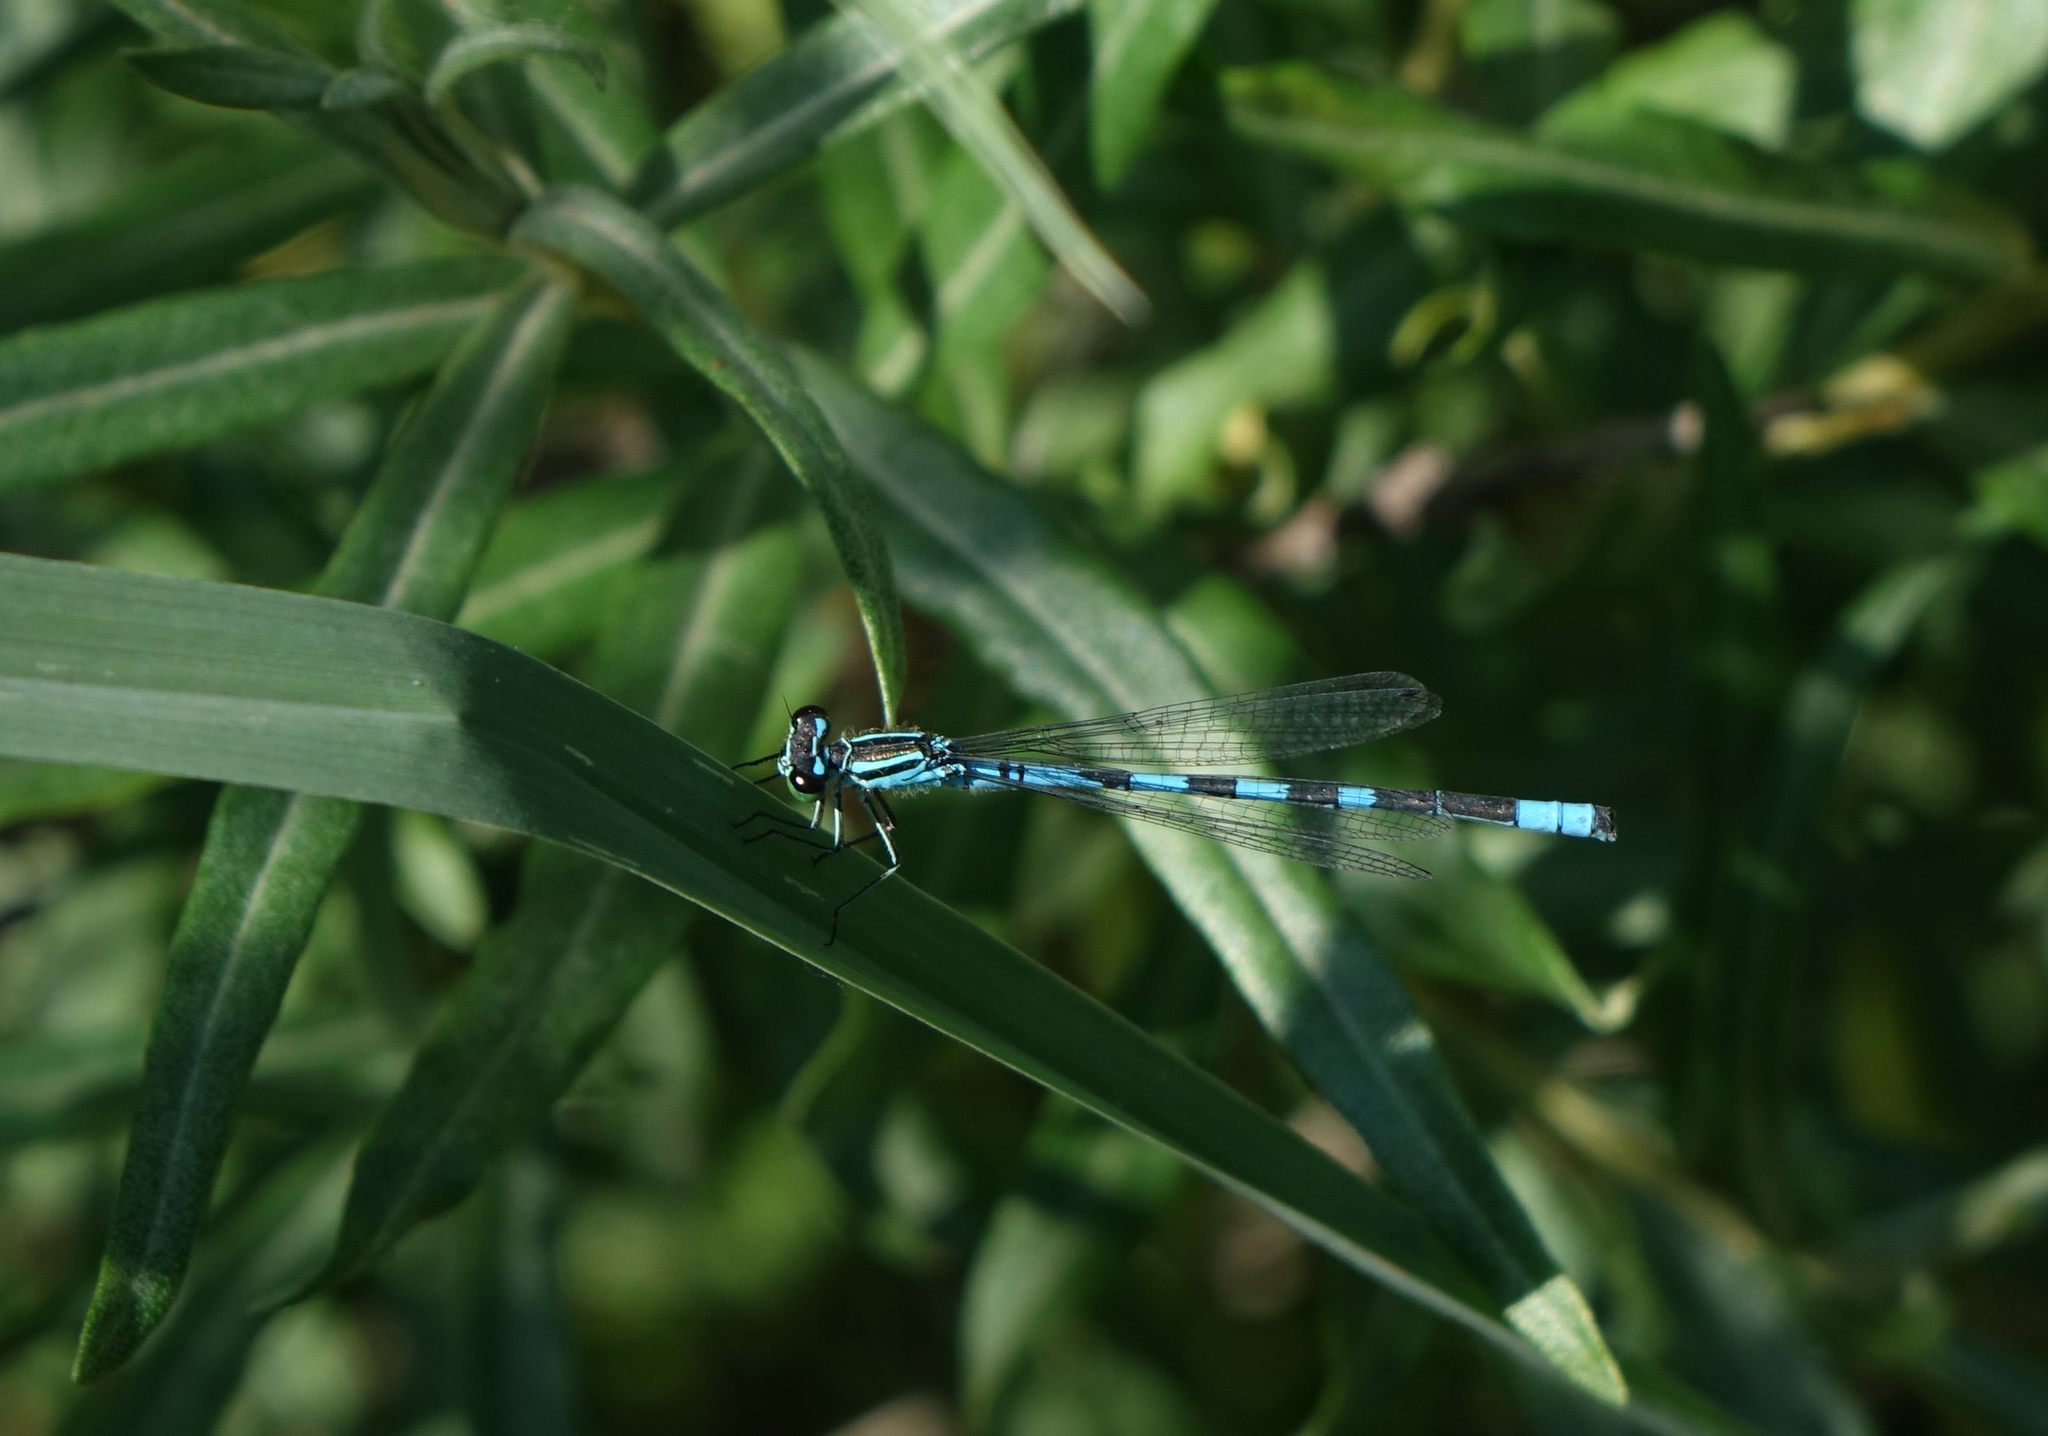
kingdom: Animalia
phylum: Arthropoda
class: Insecta
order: Odonata
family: Coenagrionidae
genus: Coenagrion
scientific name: Coenagrion hastulatum
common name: Spearhead bluet
